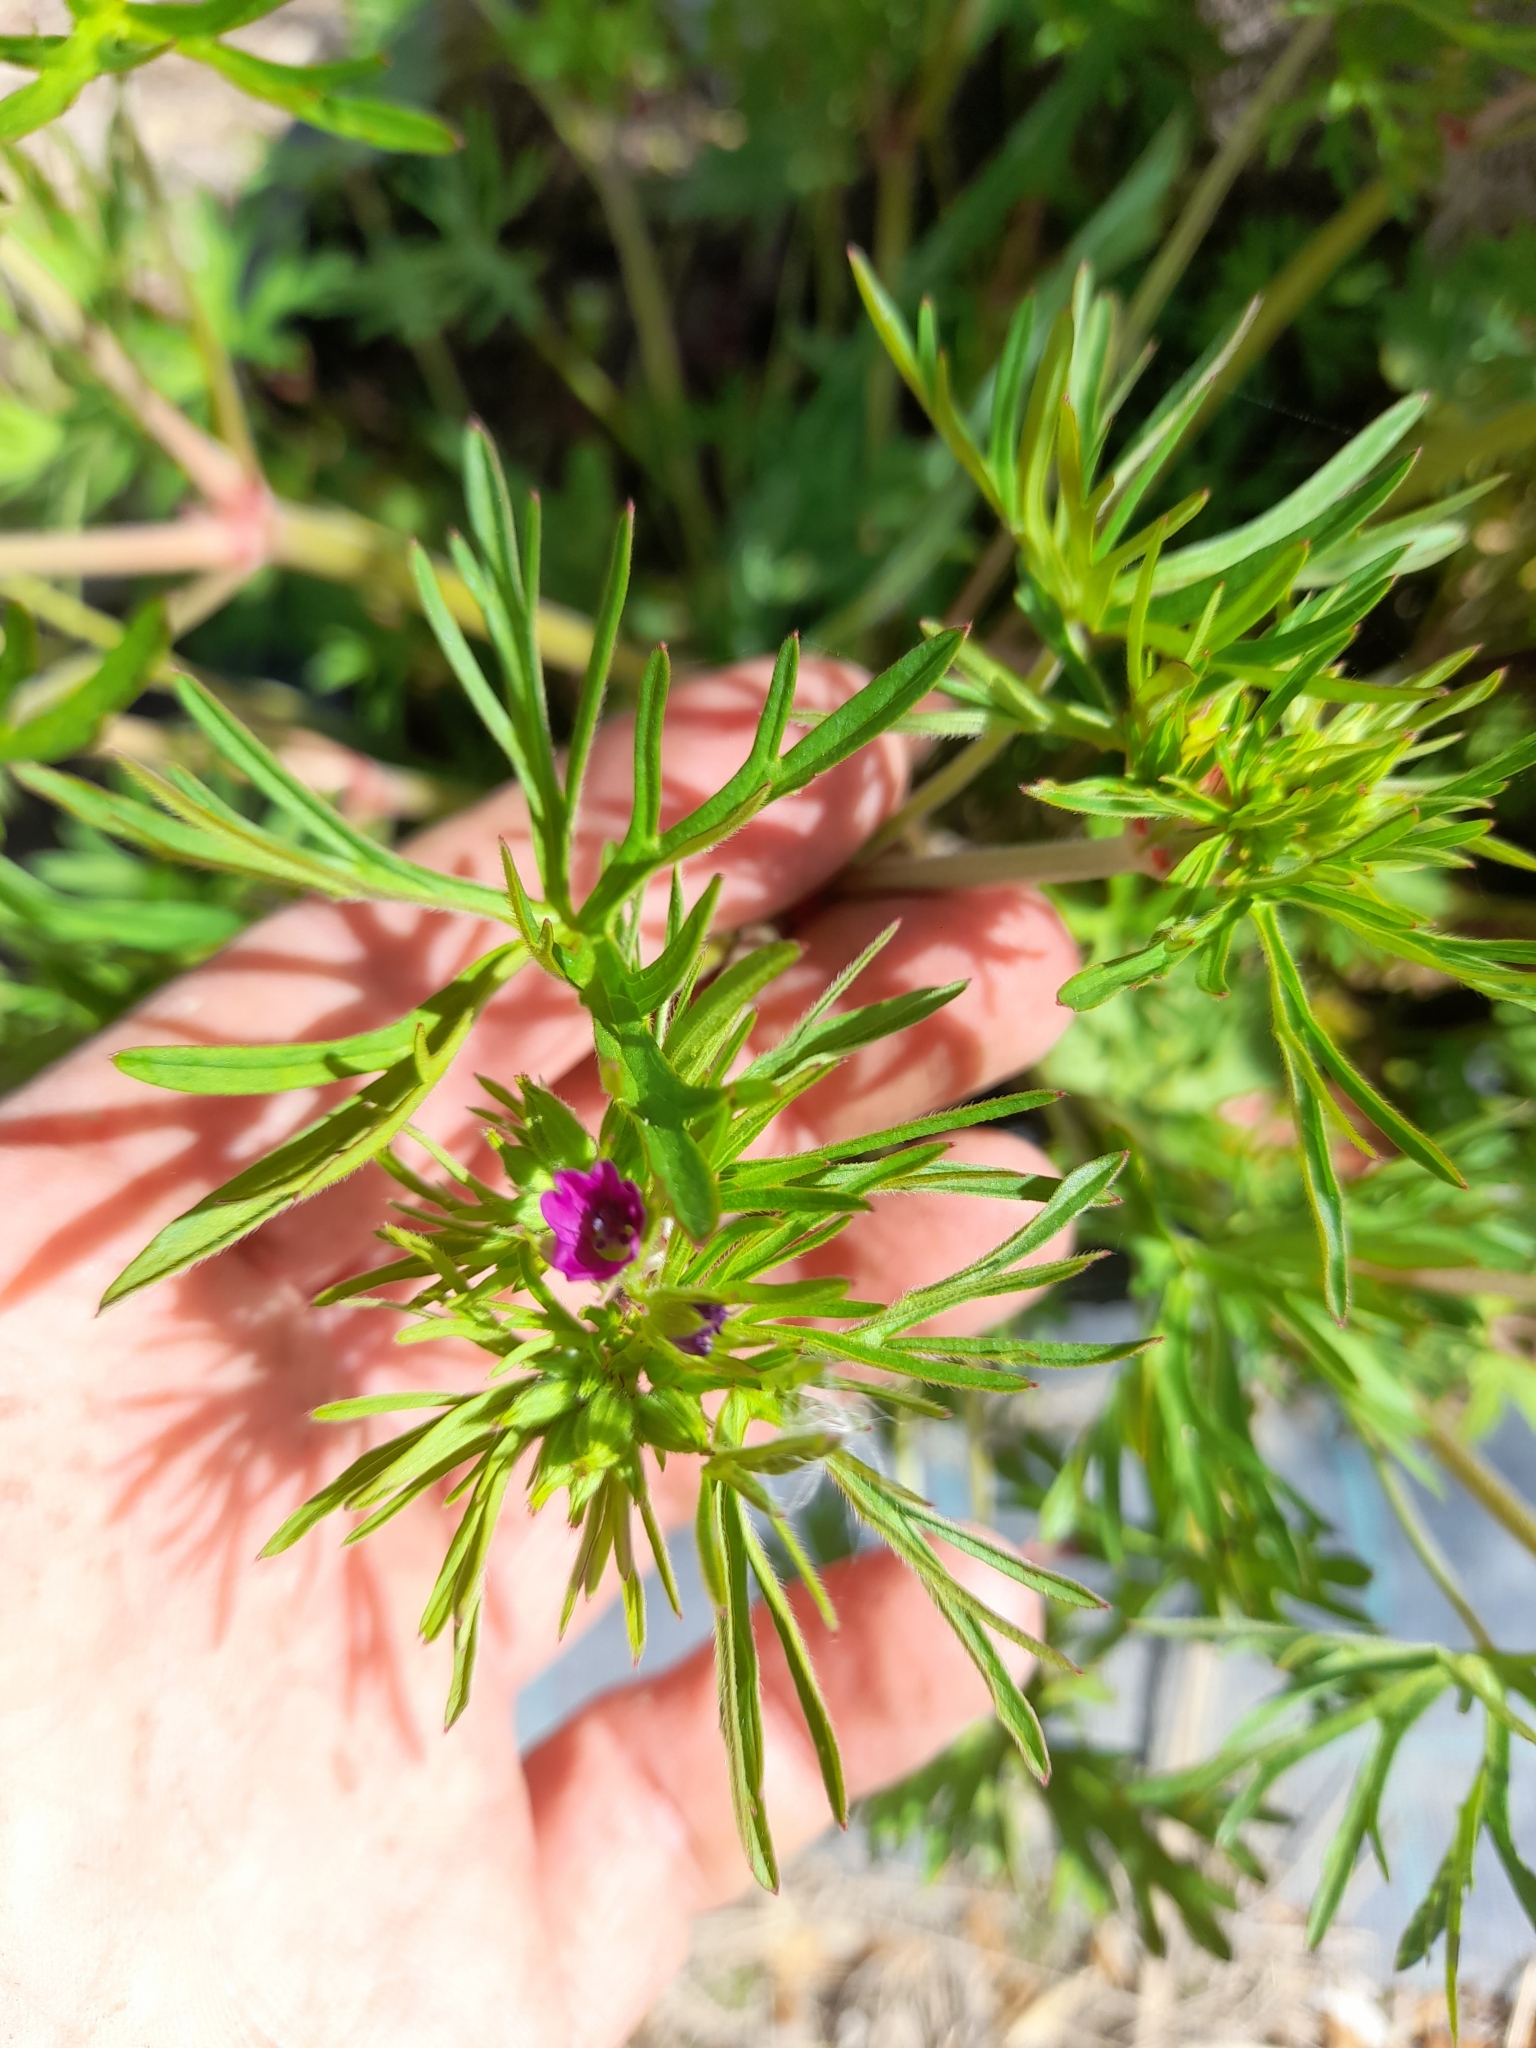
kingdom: Plantae
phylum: Tracheophyta
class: Magnoliopsida
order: Geraniales
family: Geraniaceae
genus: Geranium
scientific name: Geranium dissectum
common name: Cut-leaved crane's-bill
